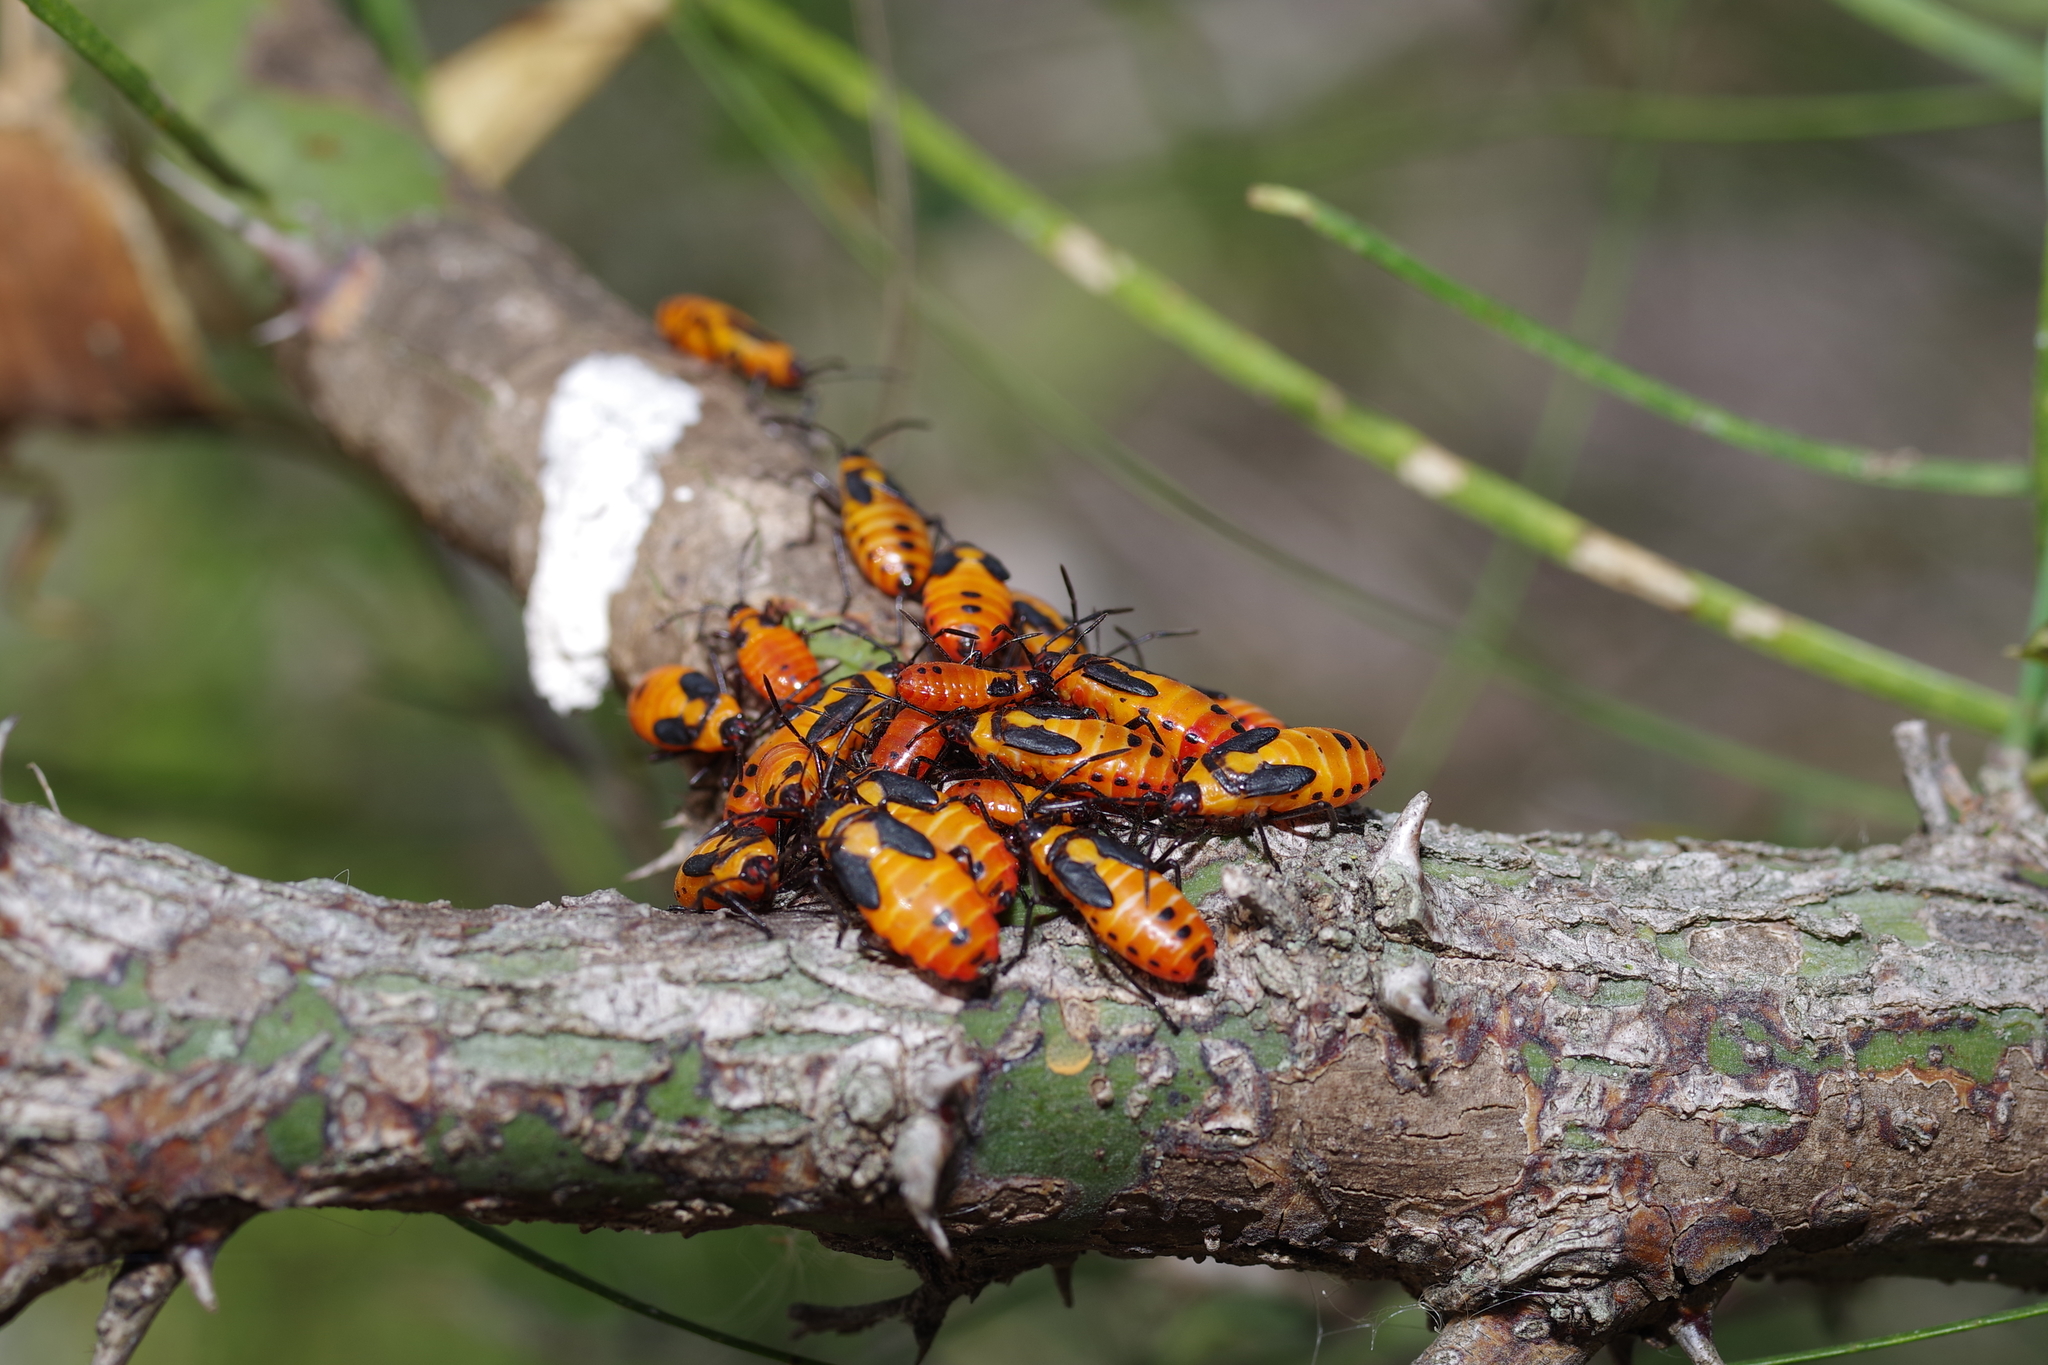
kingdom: Animalia
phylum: Arthropoda
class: Insecta
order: Hemiptera
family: Lygaeidae
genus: Oncopeltus
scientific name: Oncopeltus fasciatus
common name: Large milkweed bug
